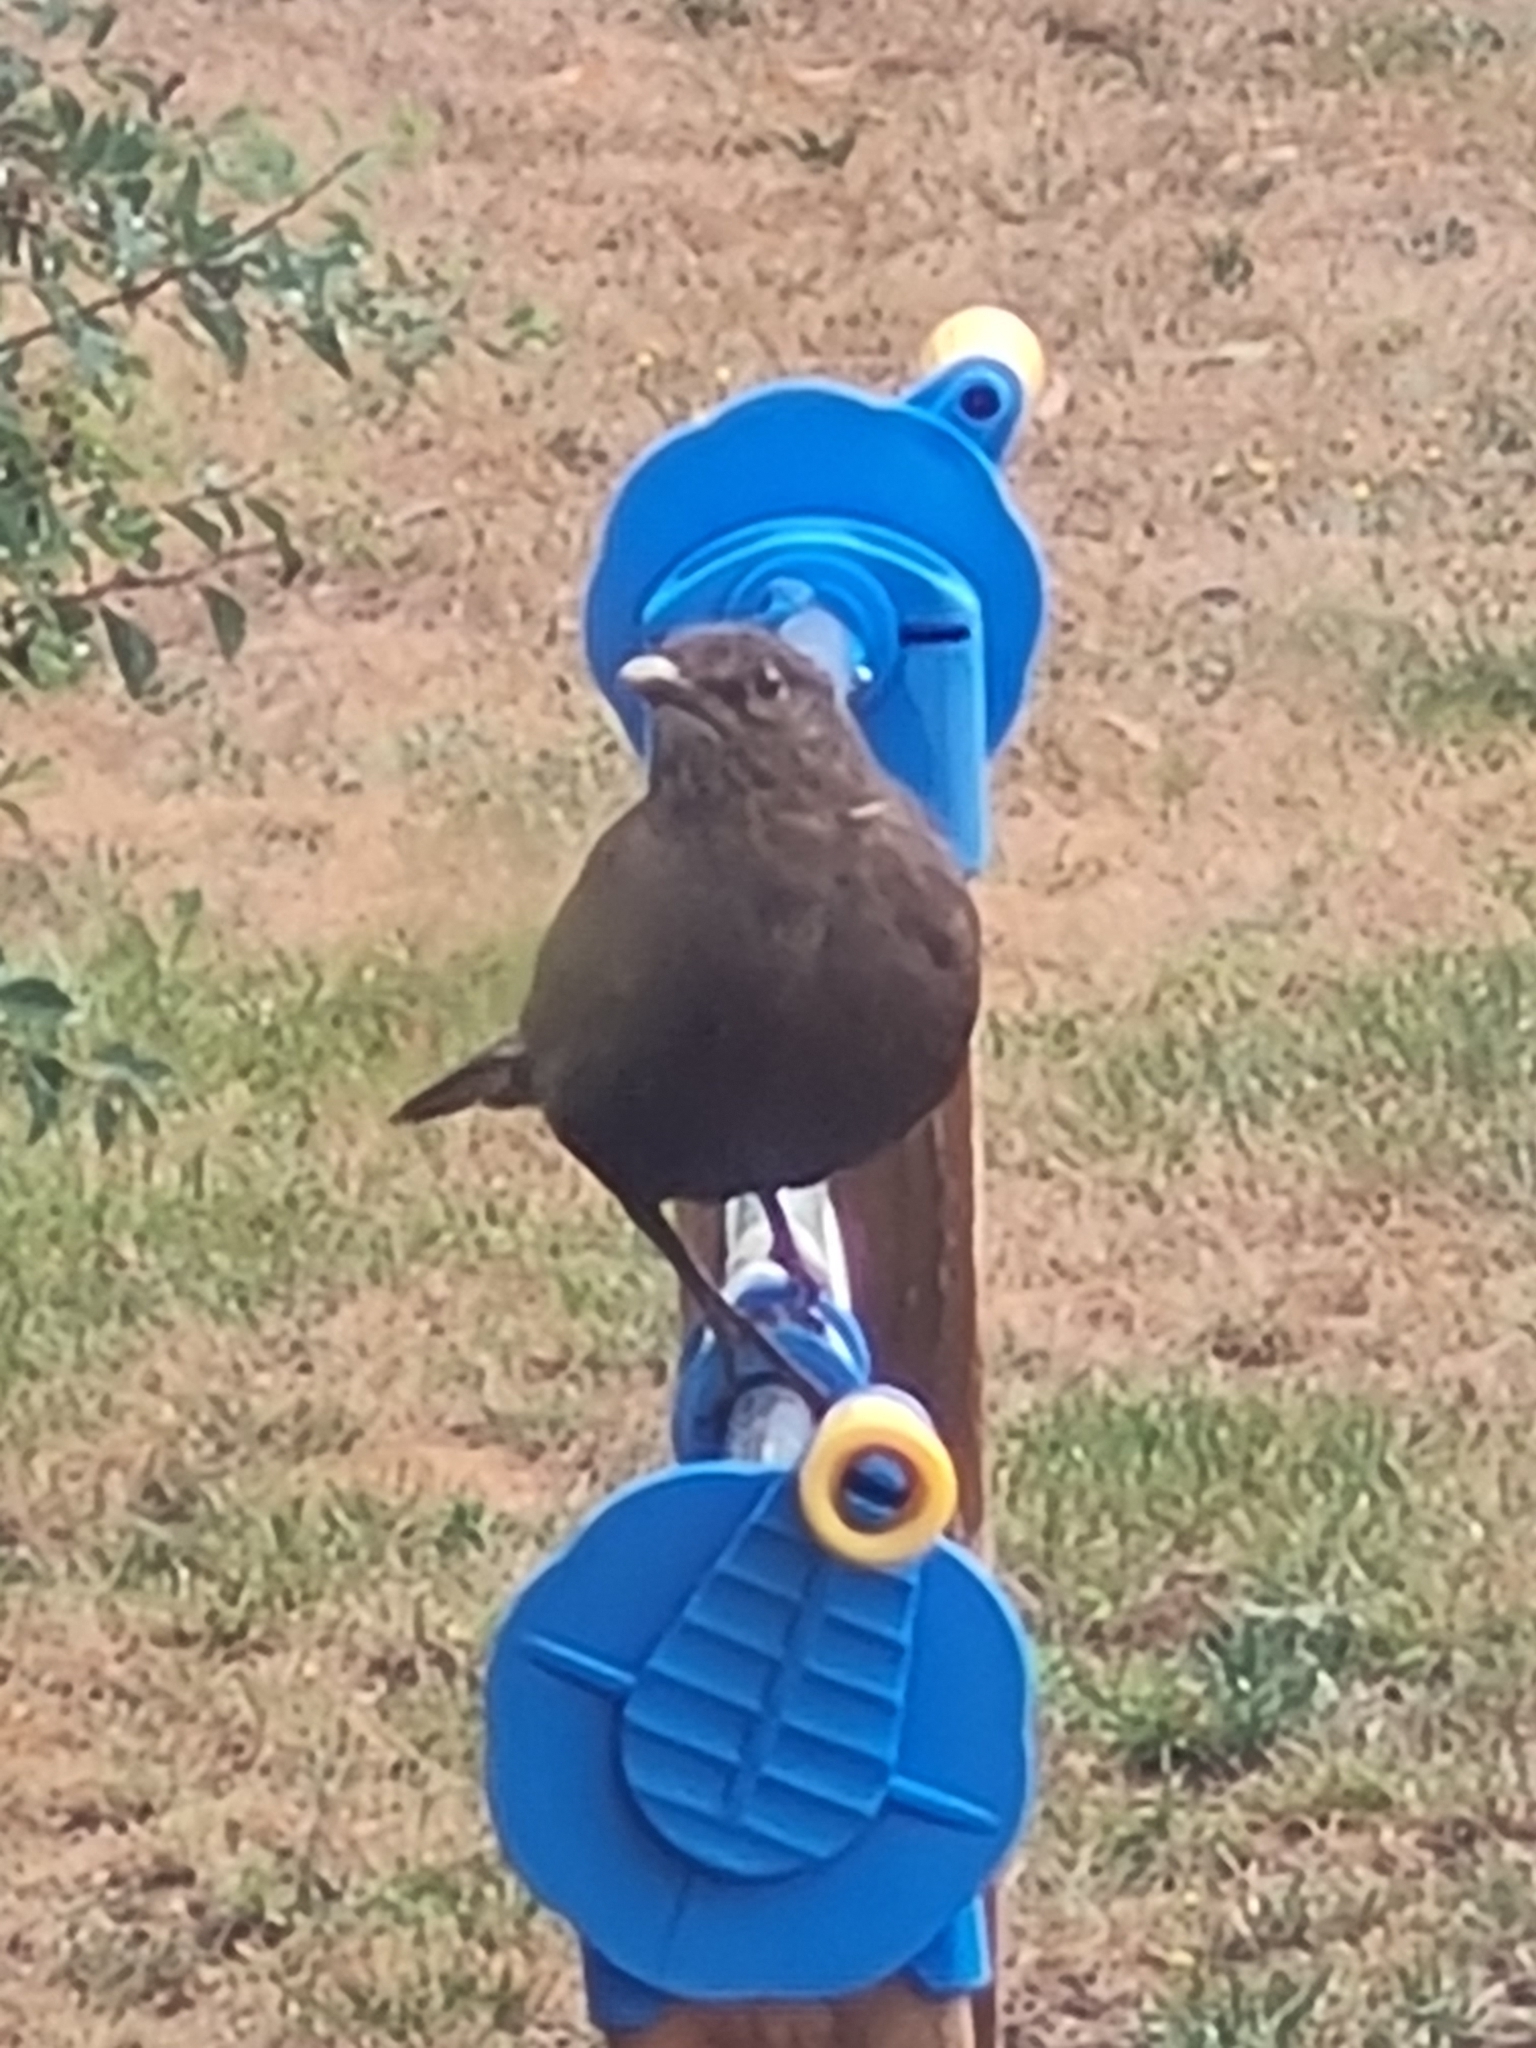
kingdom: Animalia
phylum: Chordata
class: Aves
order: Passeriformes
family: Turdidae
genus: Turdus
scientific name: Turdus merula
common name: Common blackbird
